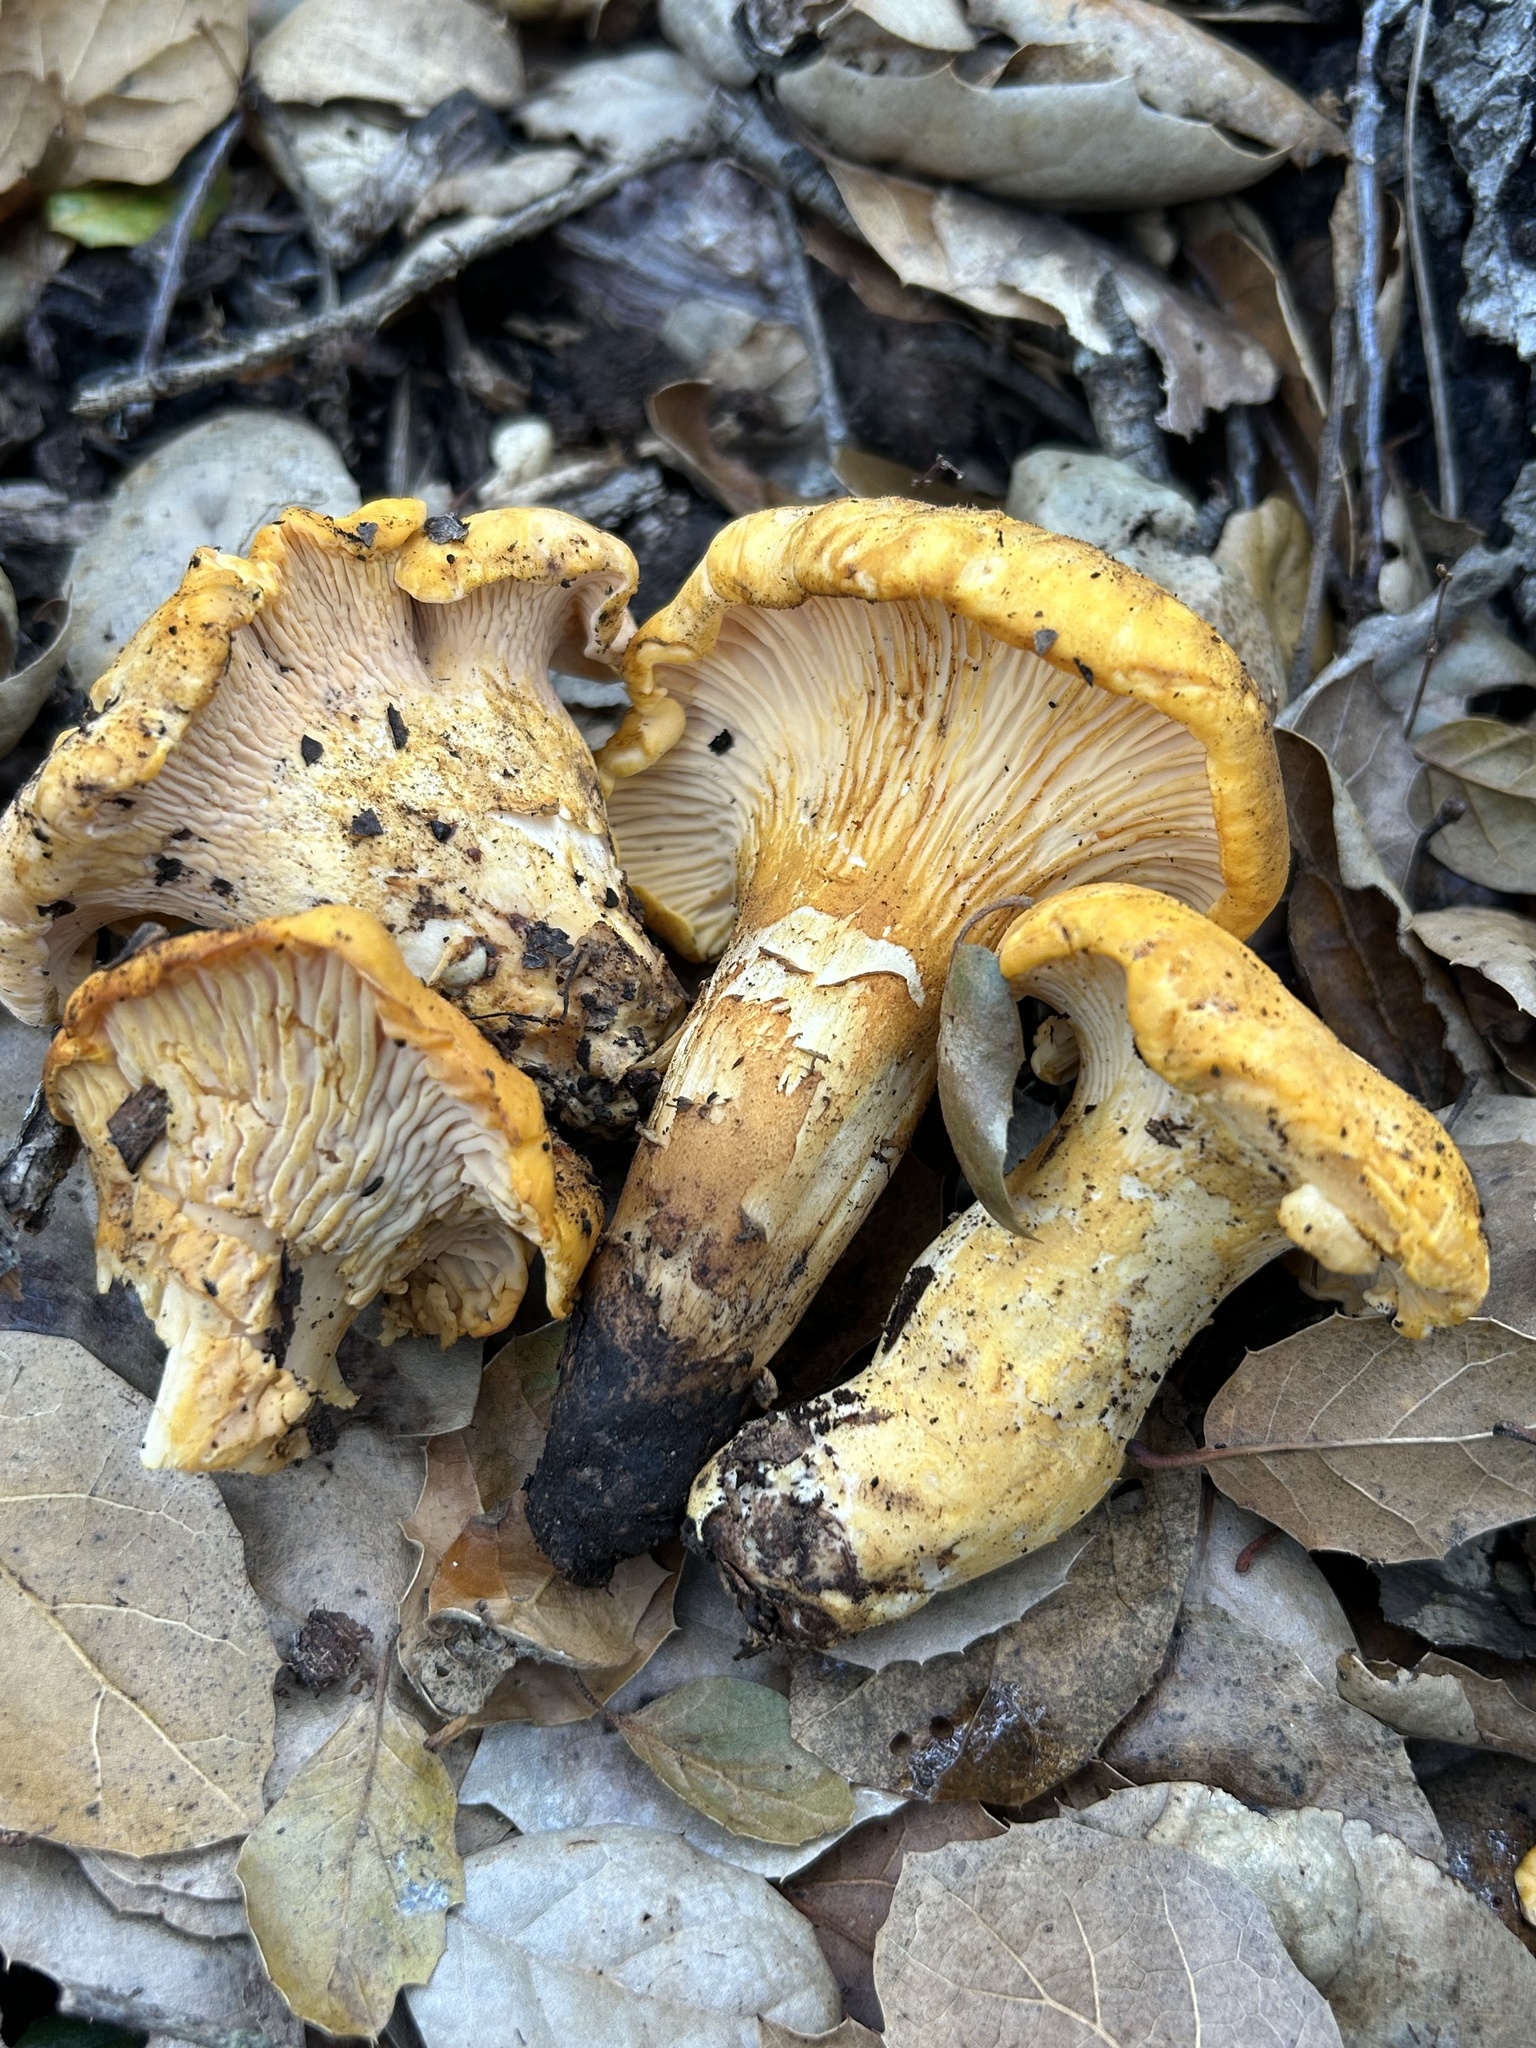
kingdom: Fungi
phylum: Basidiomycota
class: Agaricomycetes
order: Cantharellales
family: Hydnaceae
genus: Cantharellus
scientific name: Cantharellus californicus
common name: California golden chanterelle
